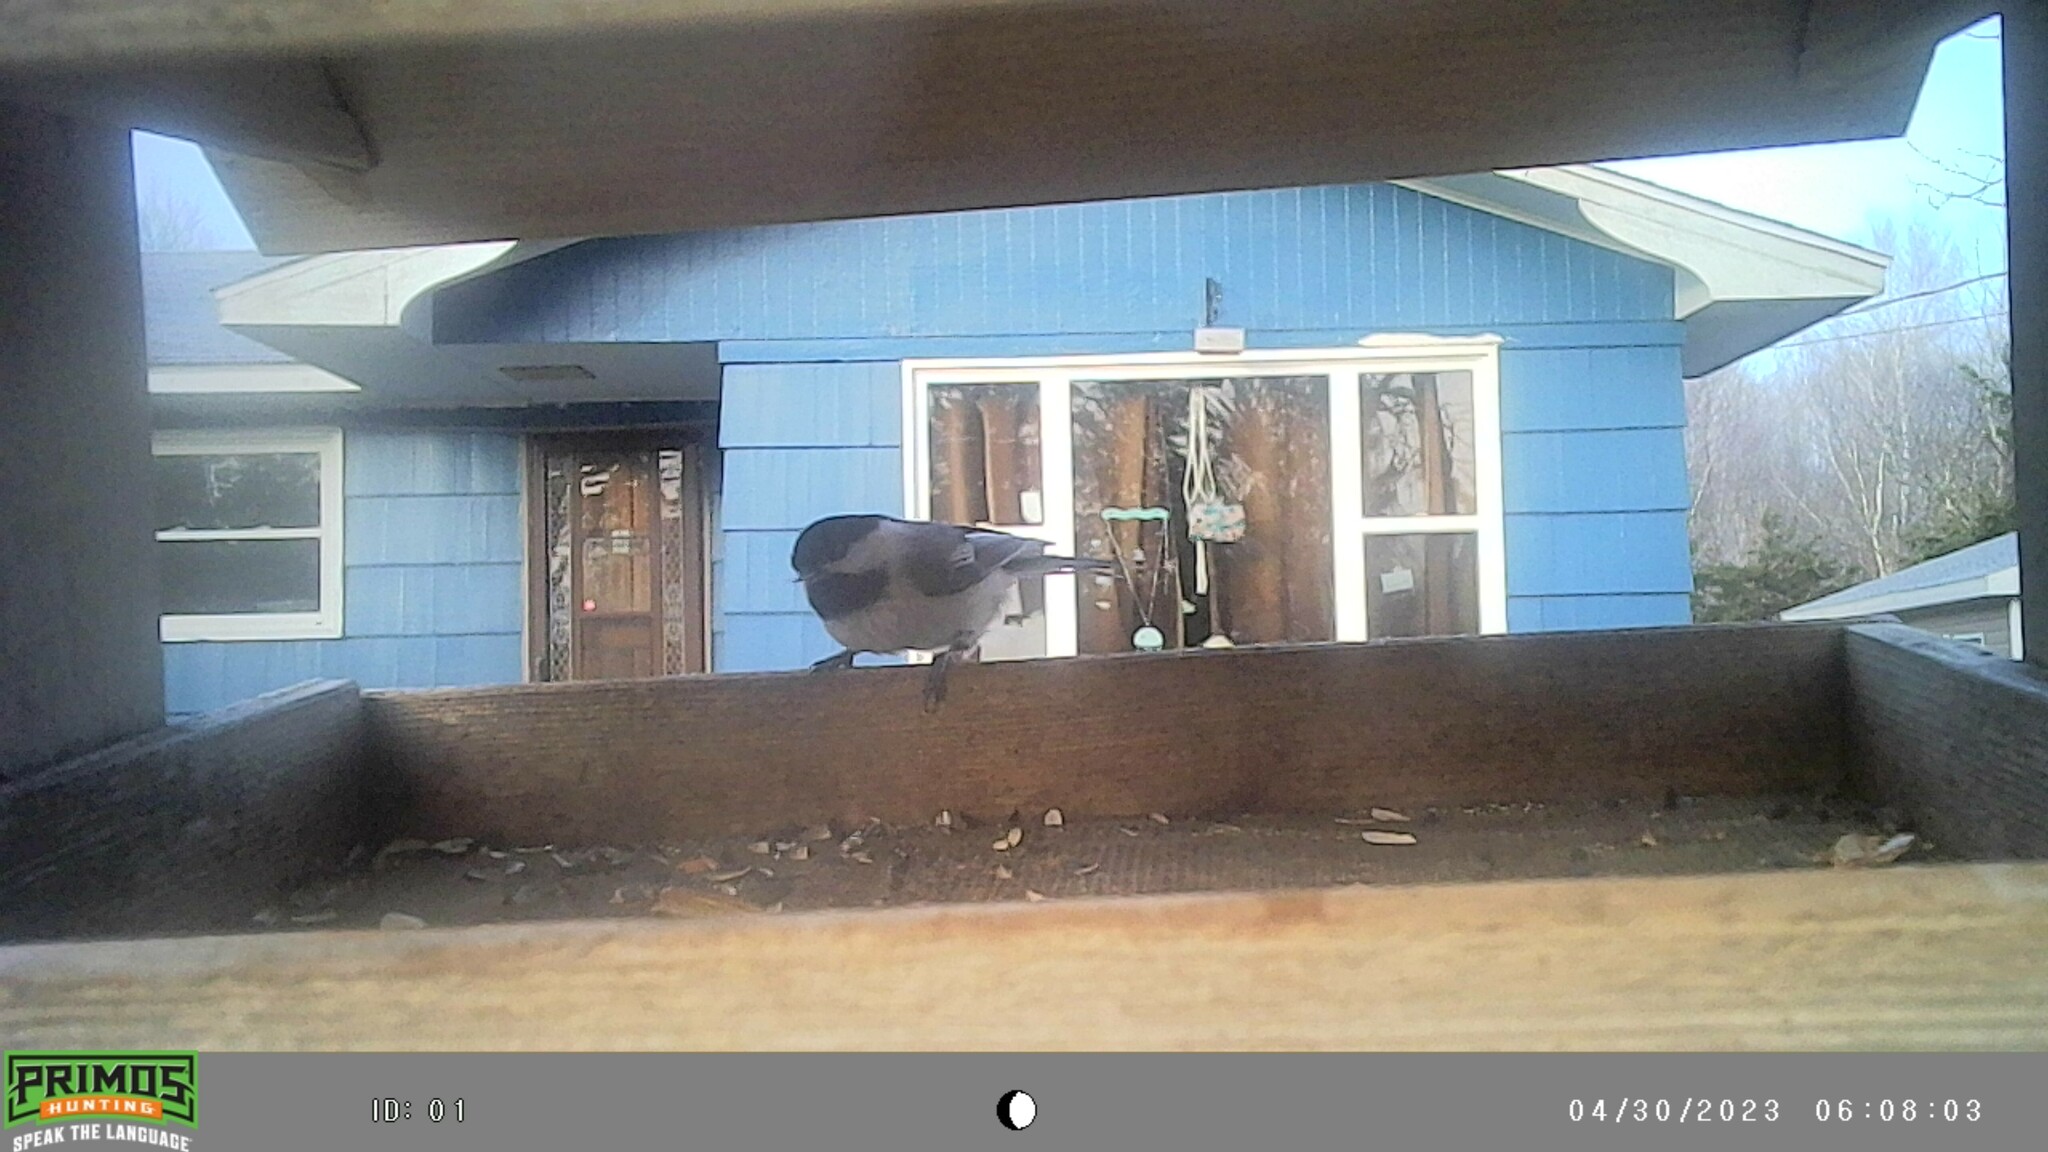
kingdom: Animalia
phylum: Chordata
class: Aves
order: Passeriformes
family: Paridae
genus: Poecile
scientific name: Poecile atricapillus
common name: Black-capped chickadee
